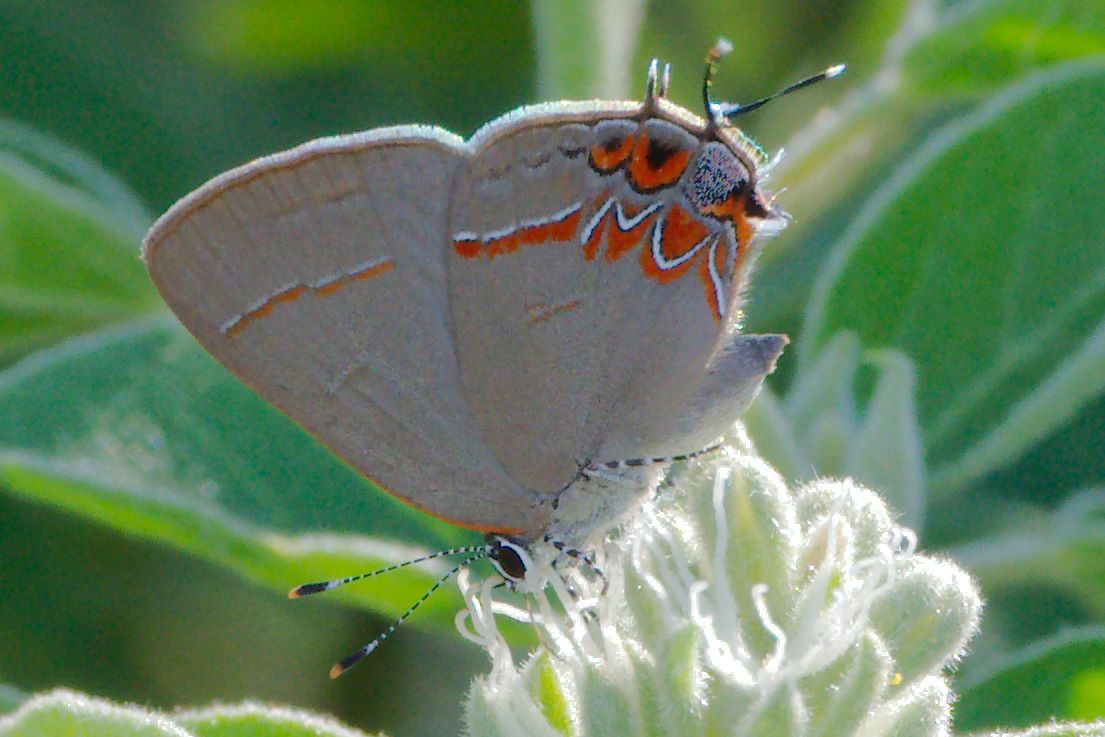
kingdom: Animalia
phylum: Arthropoda
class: Insecta
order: Lepidoptera
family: Lycaenidae
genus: Calycopis
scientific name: Calycopis isobeon
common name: Dusky-blue groundstreak
